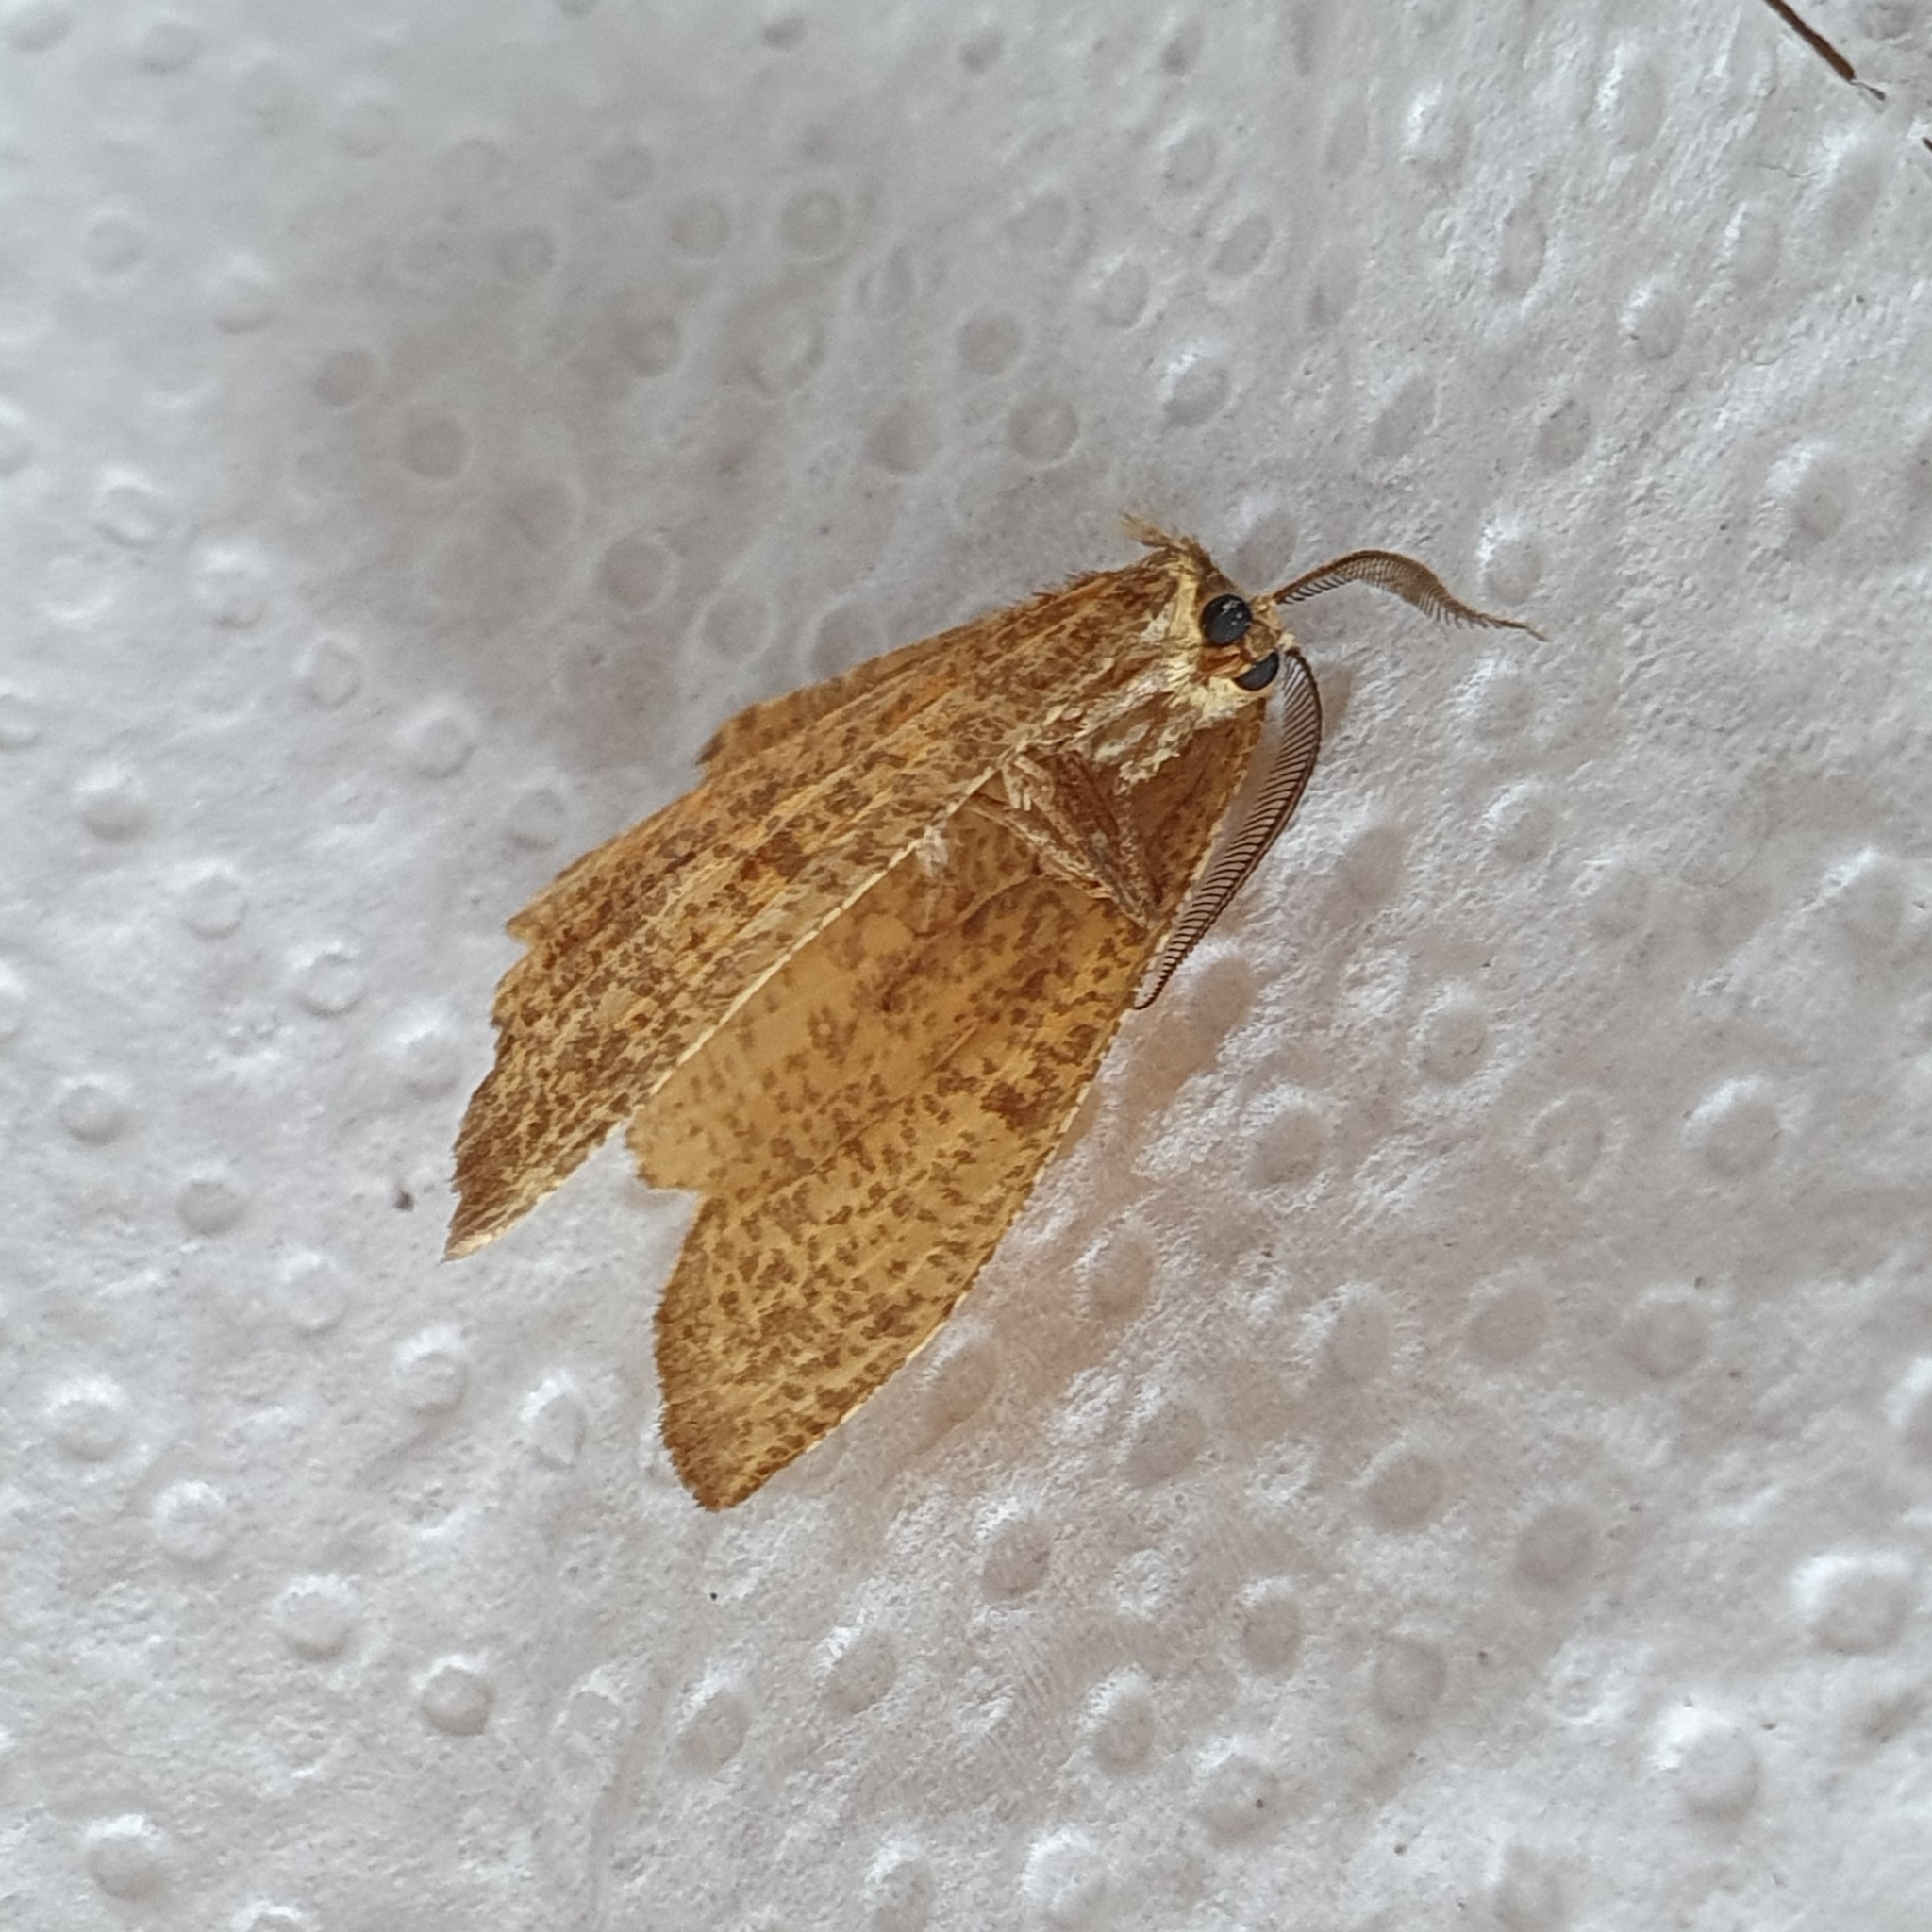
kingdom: Animalia
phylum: Arthropoda
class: Insecta
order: Lepidoptera
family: Geometridae
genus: Angerona
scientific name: Angerona prunaria
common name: Orange moth
